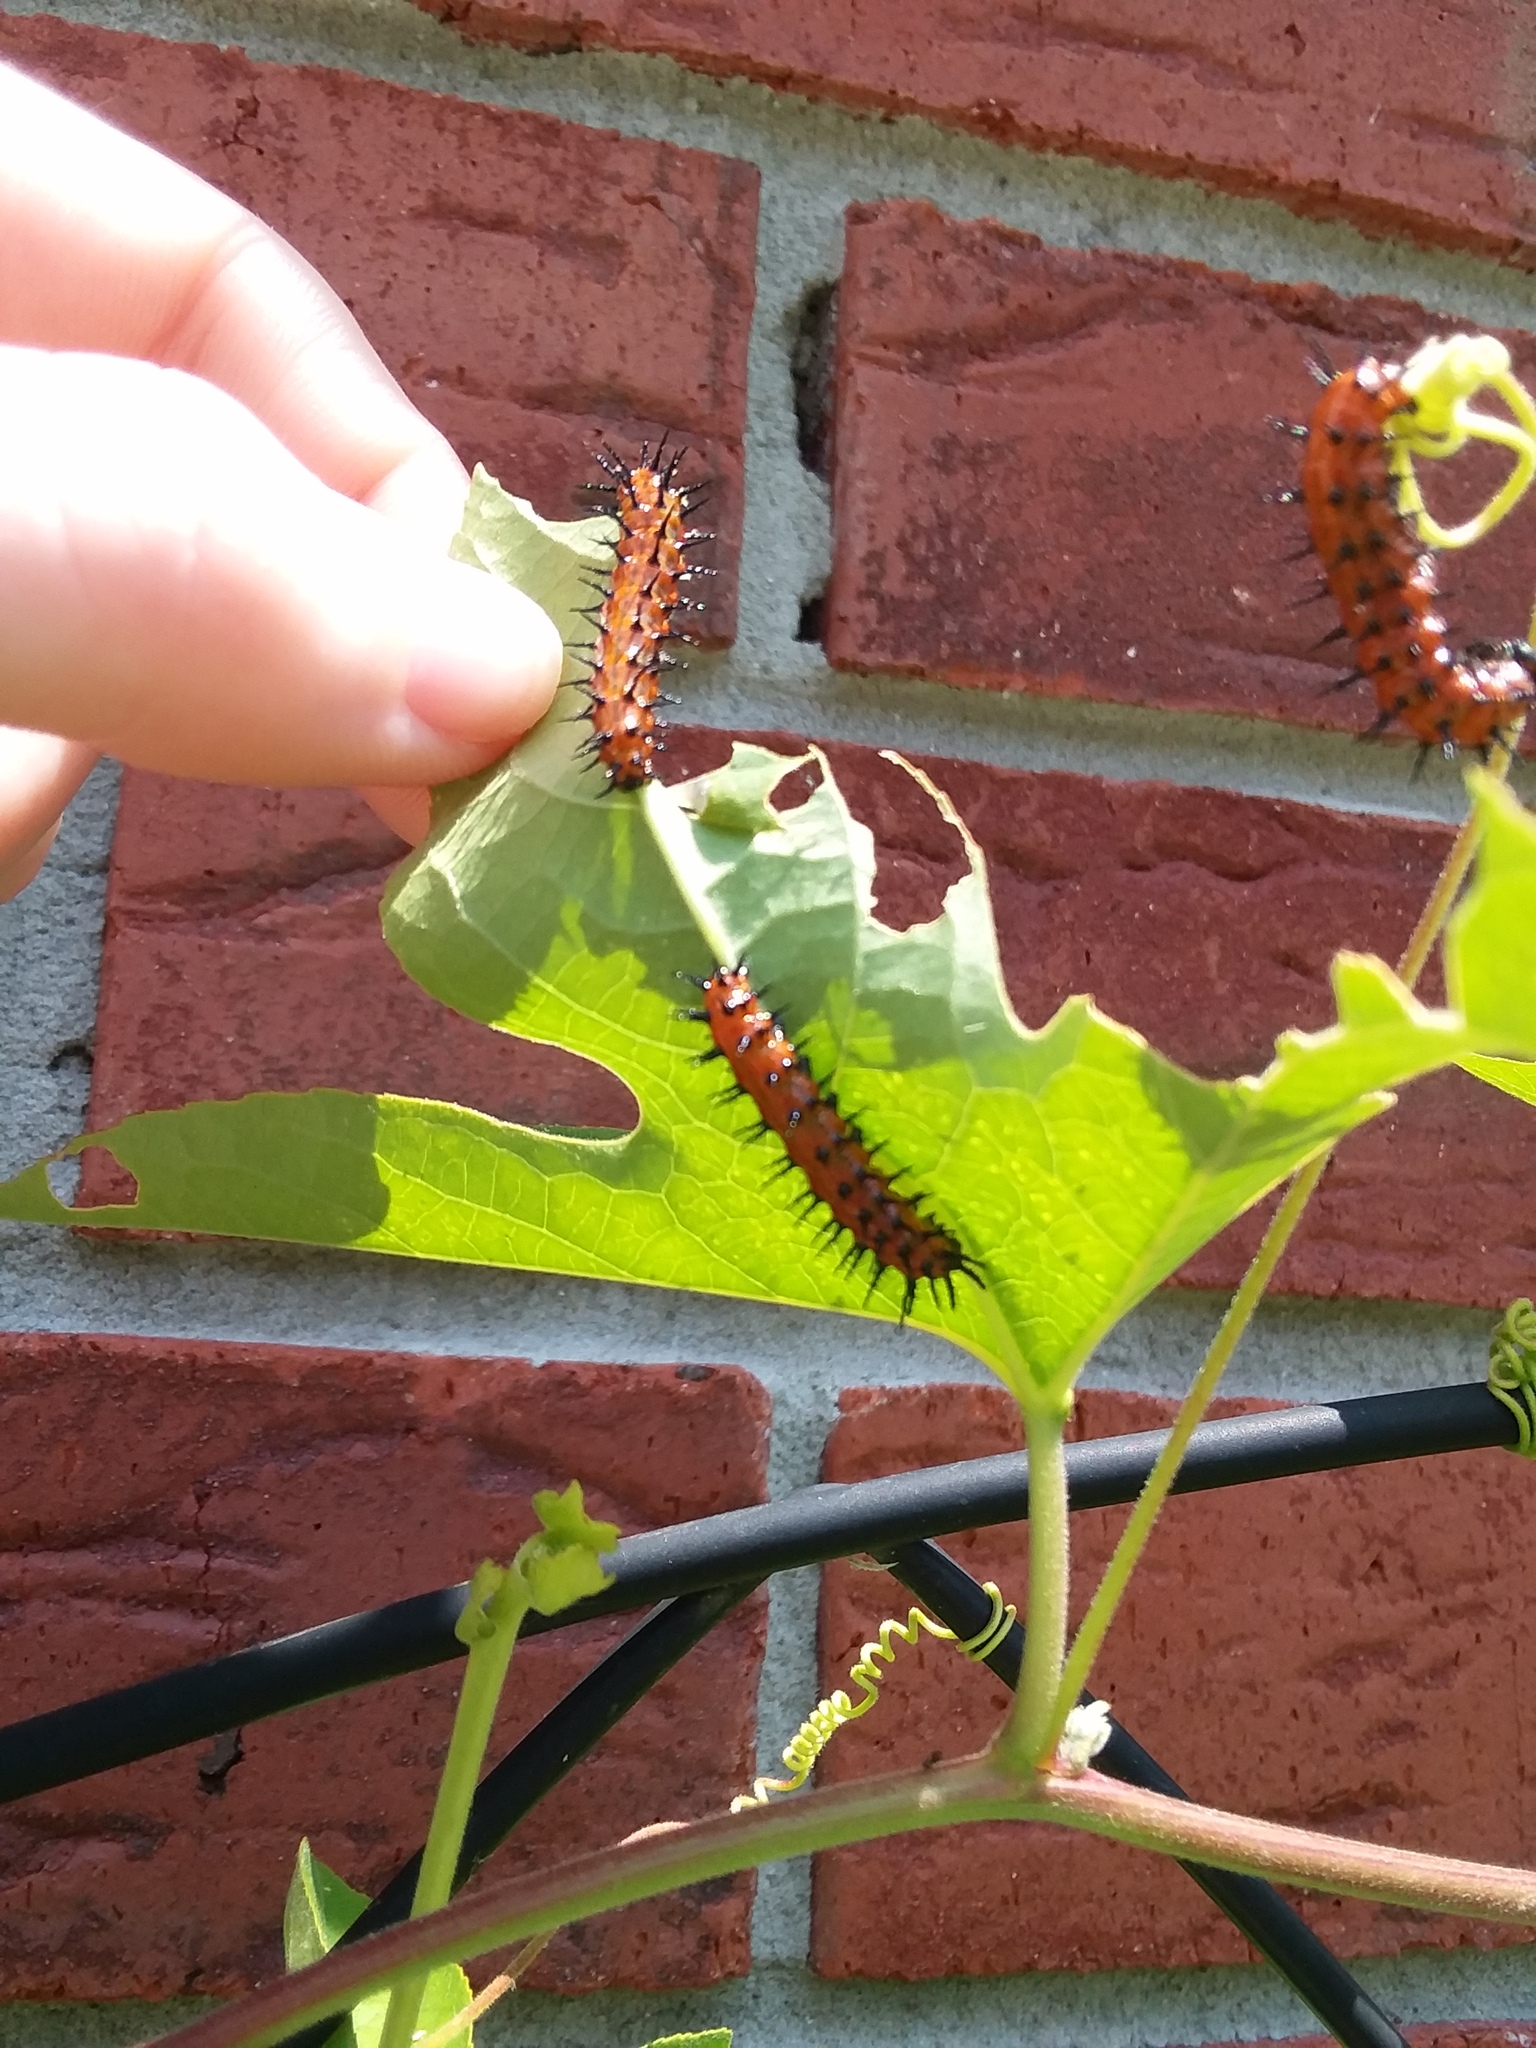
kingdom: Animalia
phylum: Arthropoda
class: Insecta
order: Lepidoptera
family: Nymphalidae
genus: Dione
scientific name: Dione vanillae
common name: Gulf fritillary
